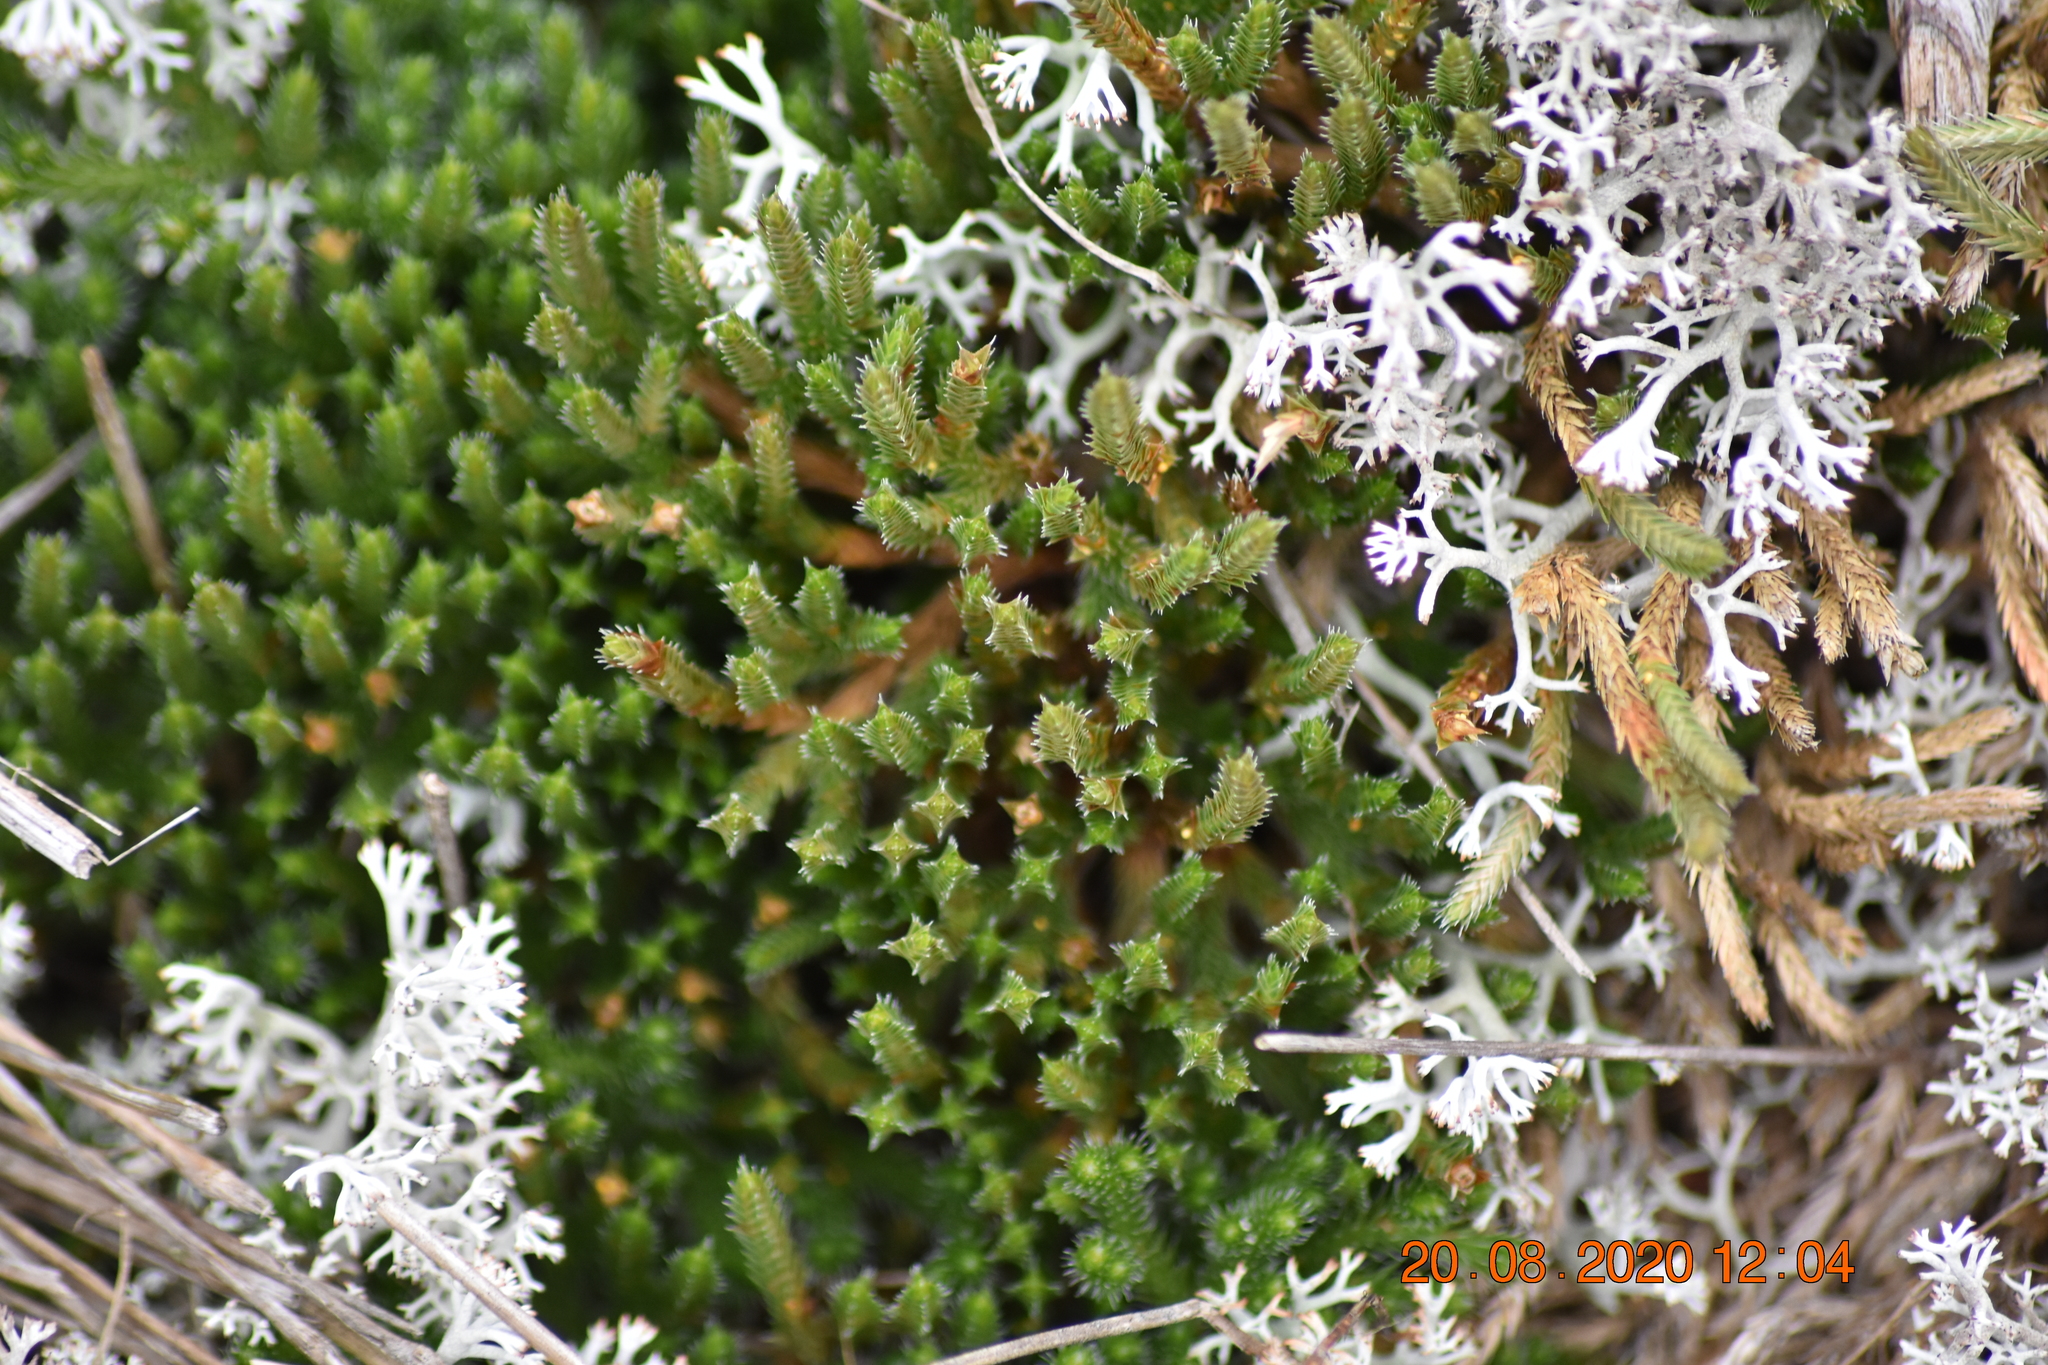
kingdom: Plantae
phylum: Tracheophyta
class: Lycopodiopsida
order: Selaginellales
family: Selaginellaceae
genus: Selaginella
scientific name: Selaginella rupestris
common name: Dwarf spikemoss
